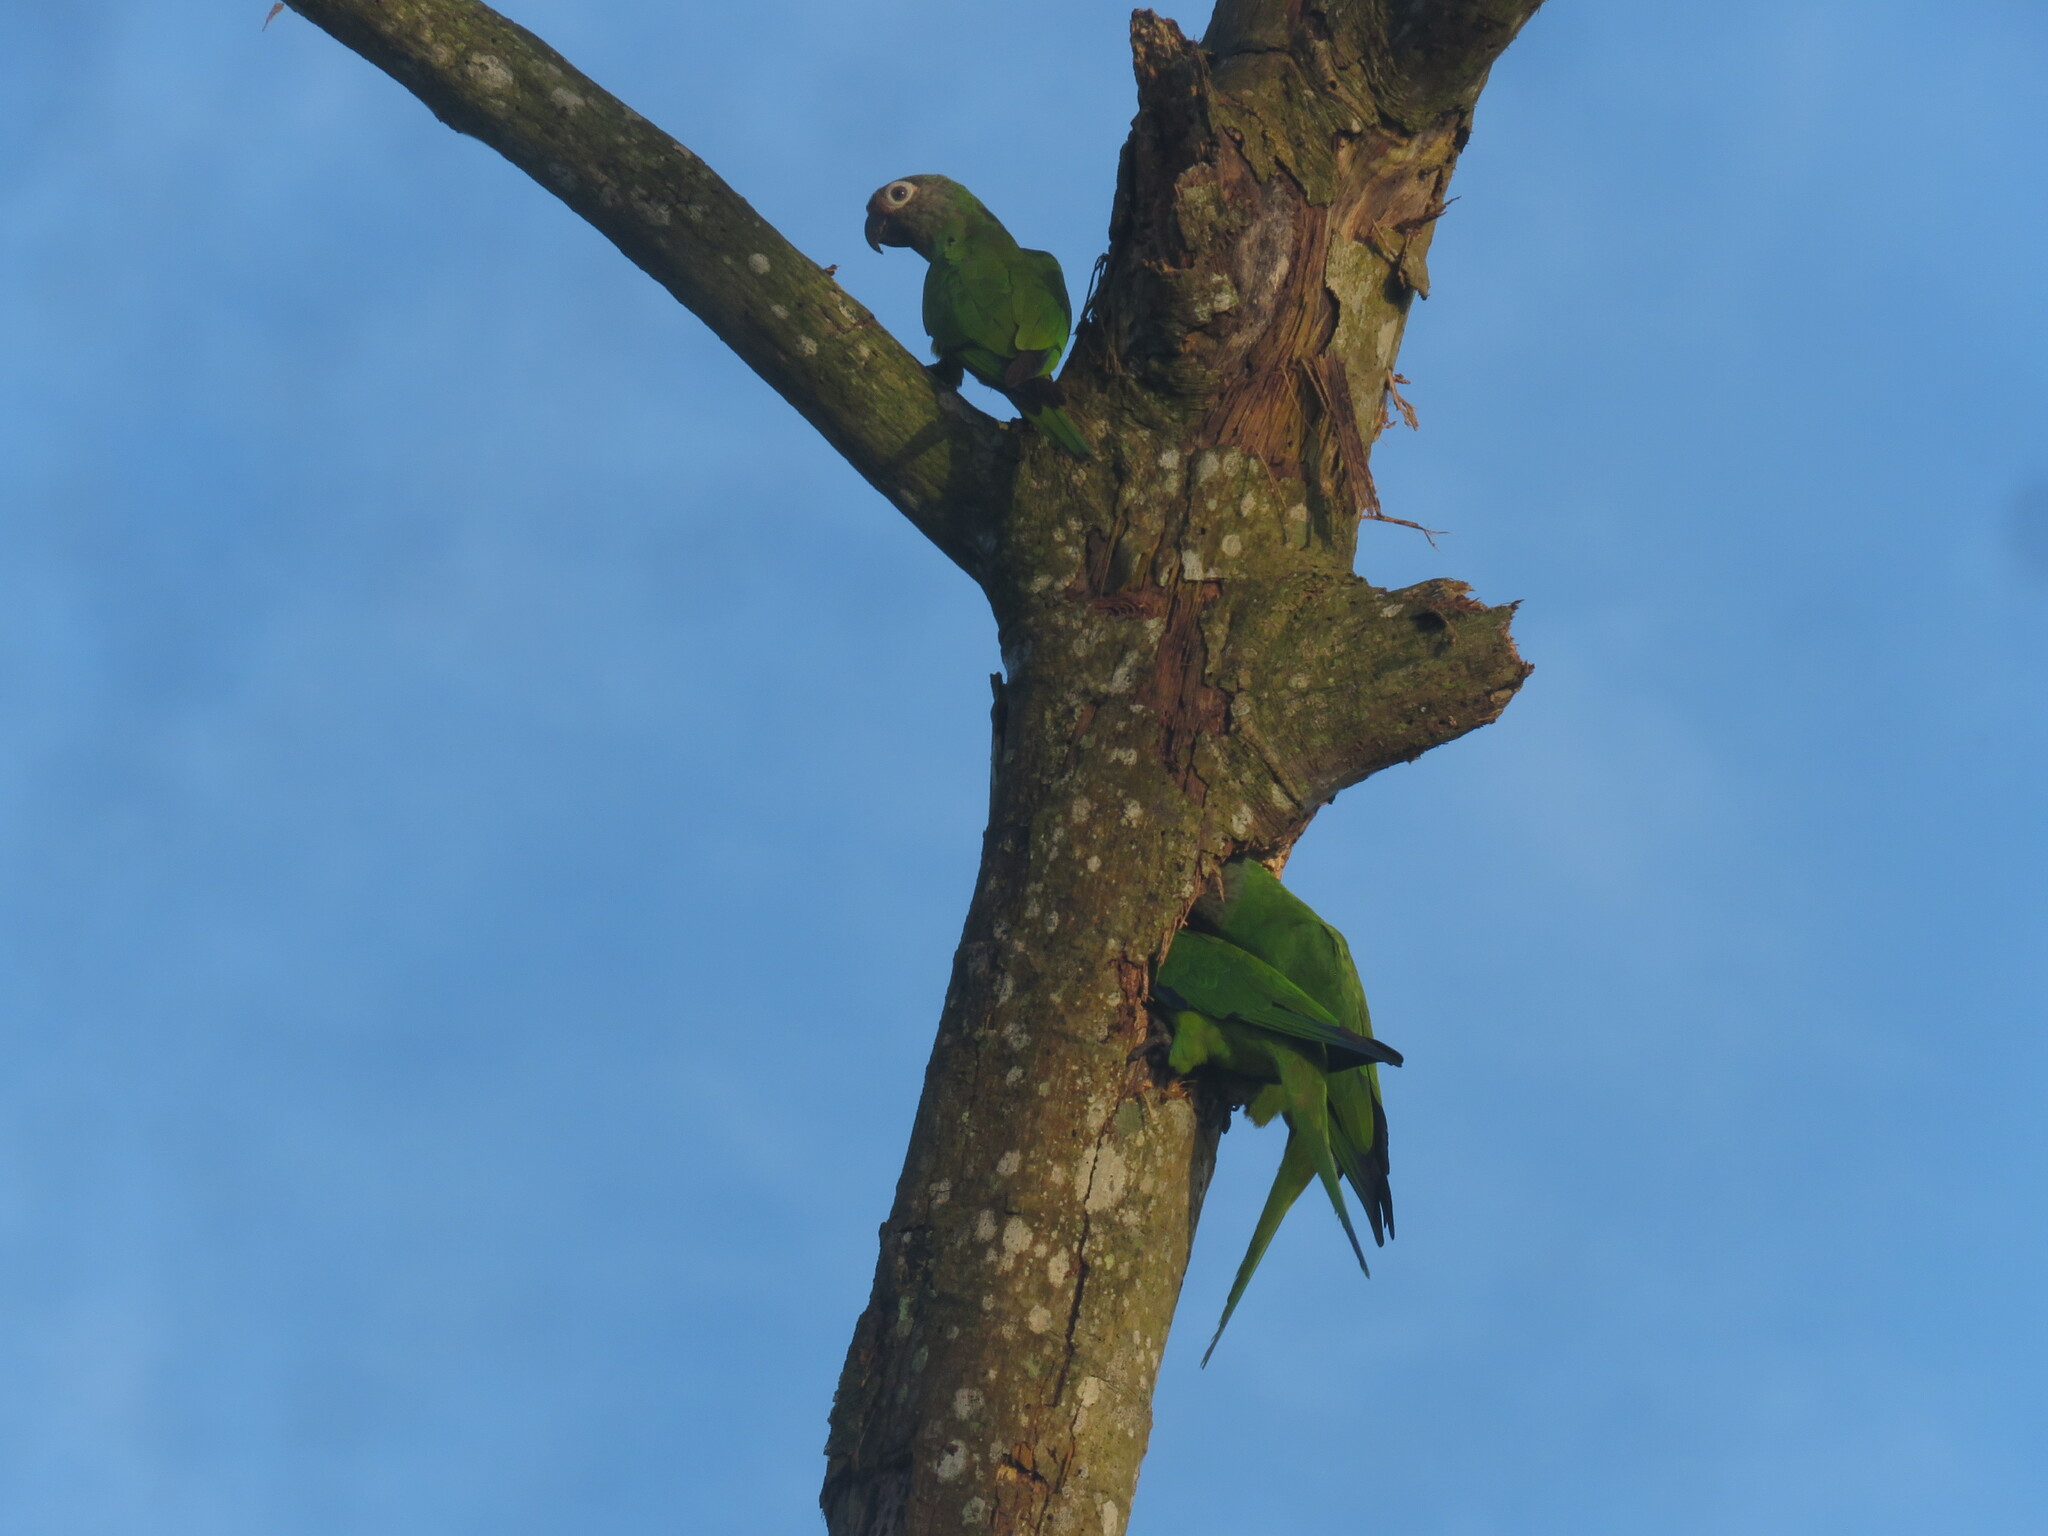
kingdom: Animalia
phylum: Chordata
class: Aves
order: Psittaciformes
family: Psittacidae
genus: Aratinga
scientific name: Aratinga weddellii
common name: Dusky-headed parakeet
